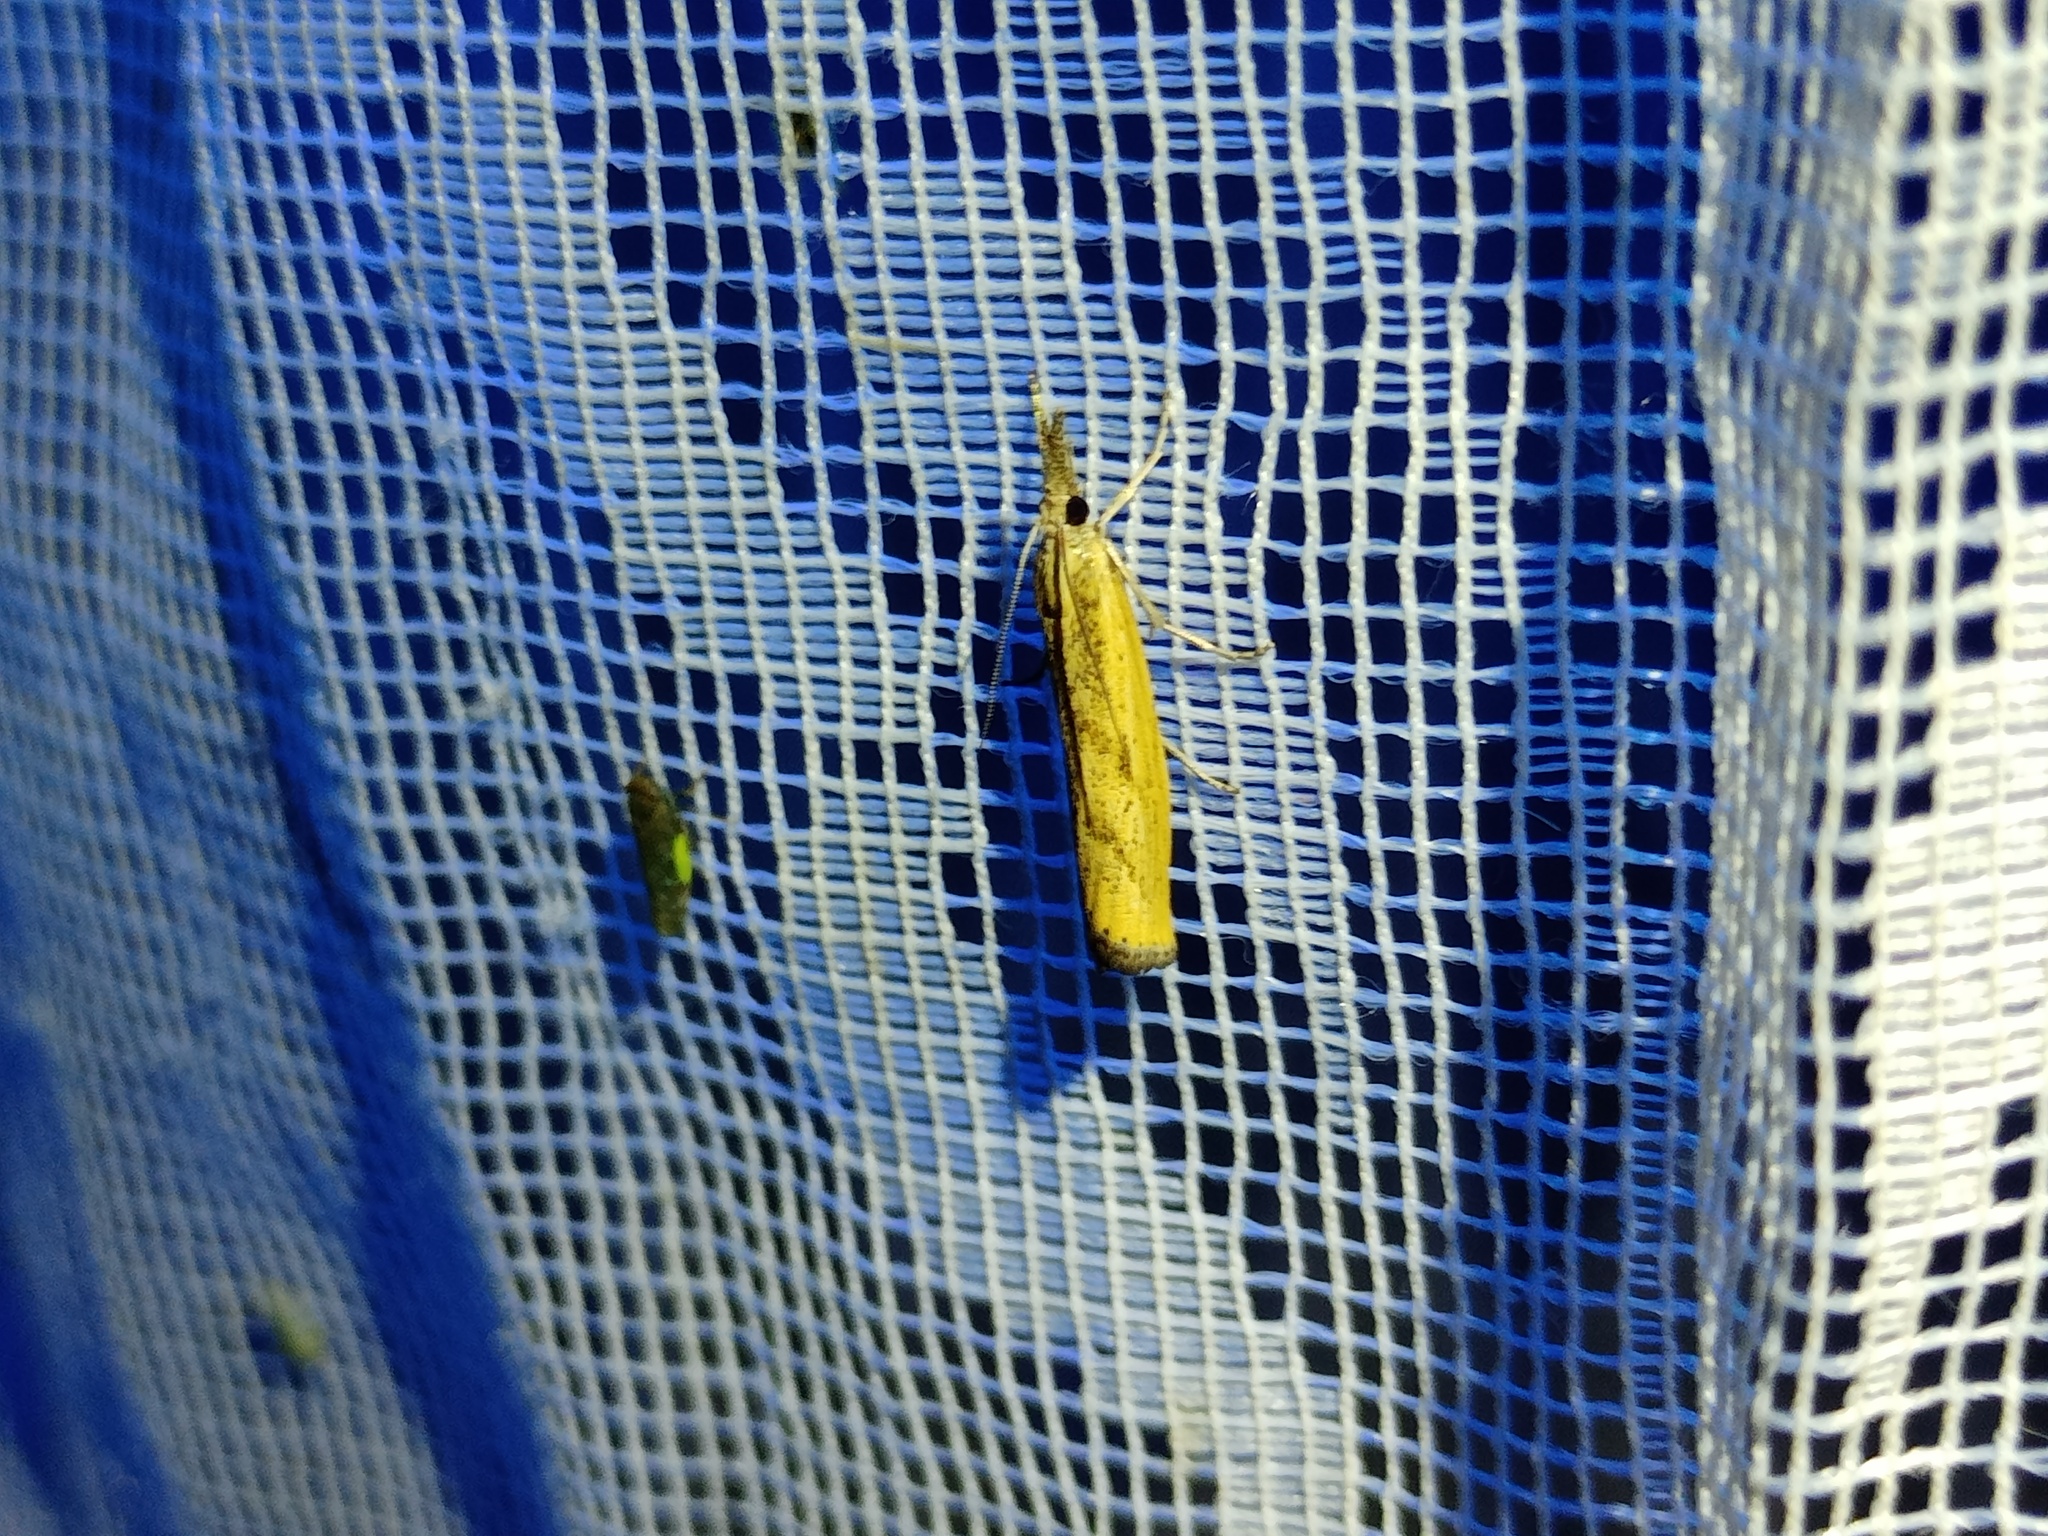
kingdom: Animalia
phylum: Arthropoda
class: Insecta
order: Lepidoptera
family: Crambidae
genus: Agriphila
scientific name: Agriphila inquinatella
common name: Barred grass-veneer
